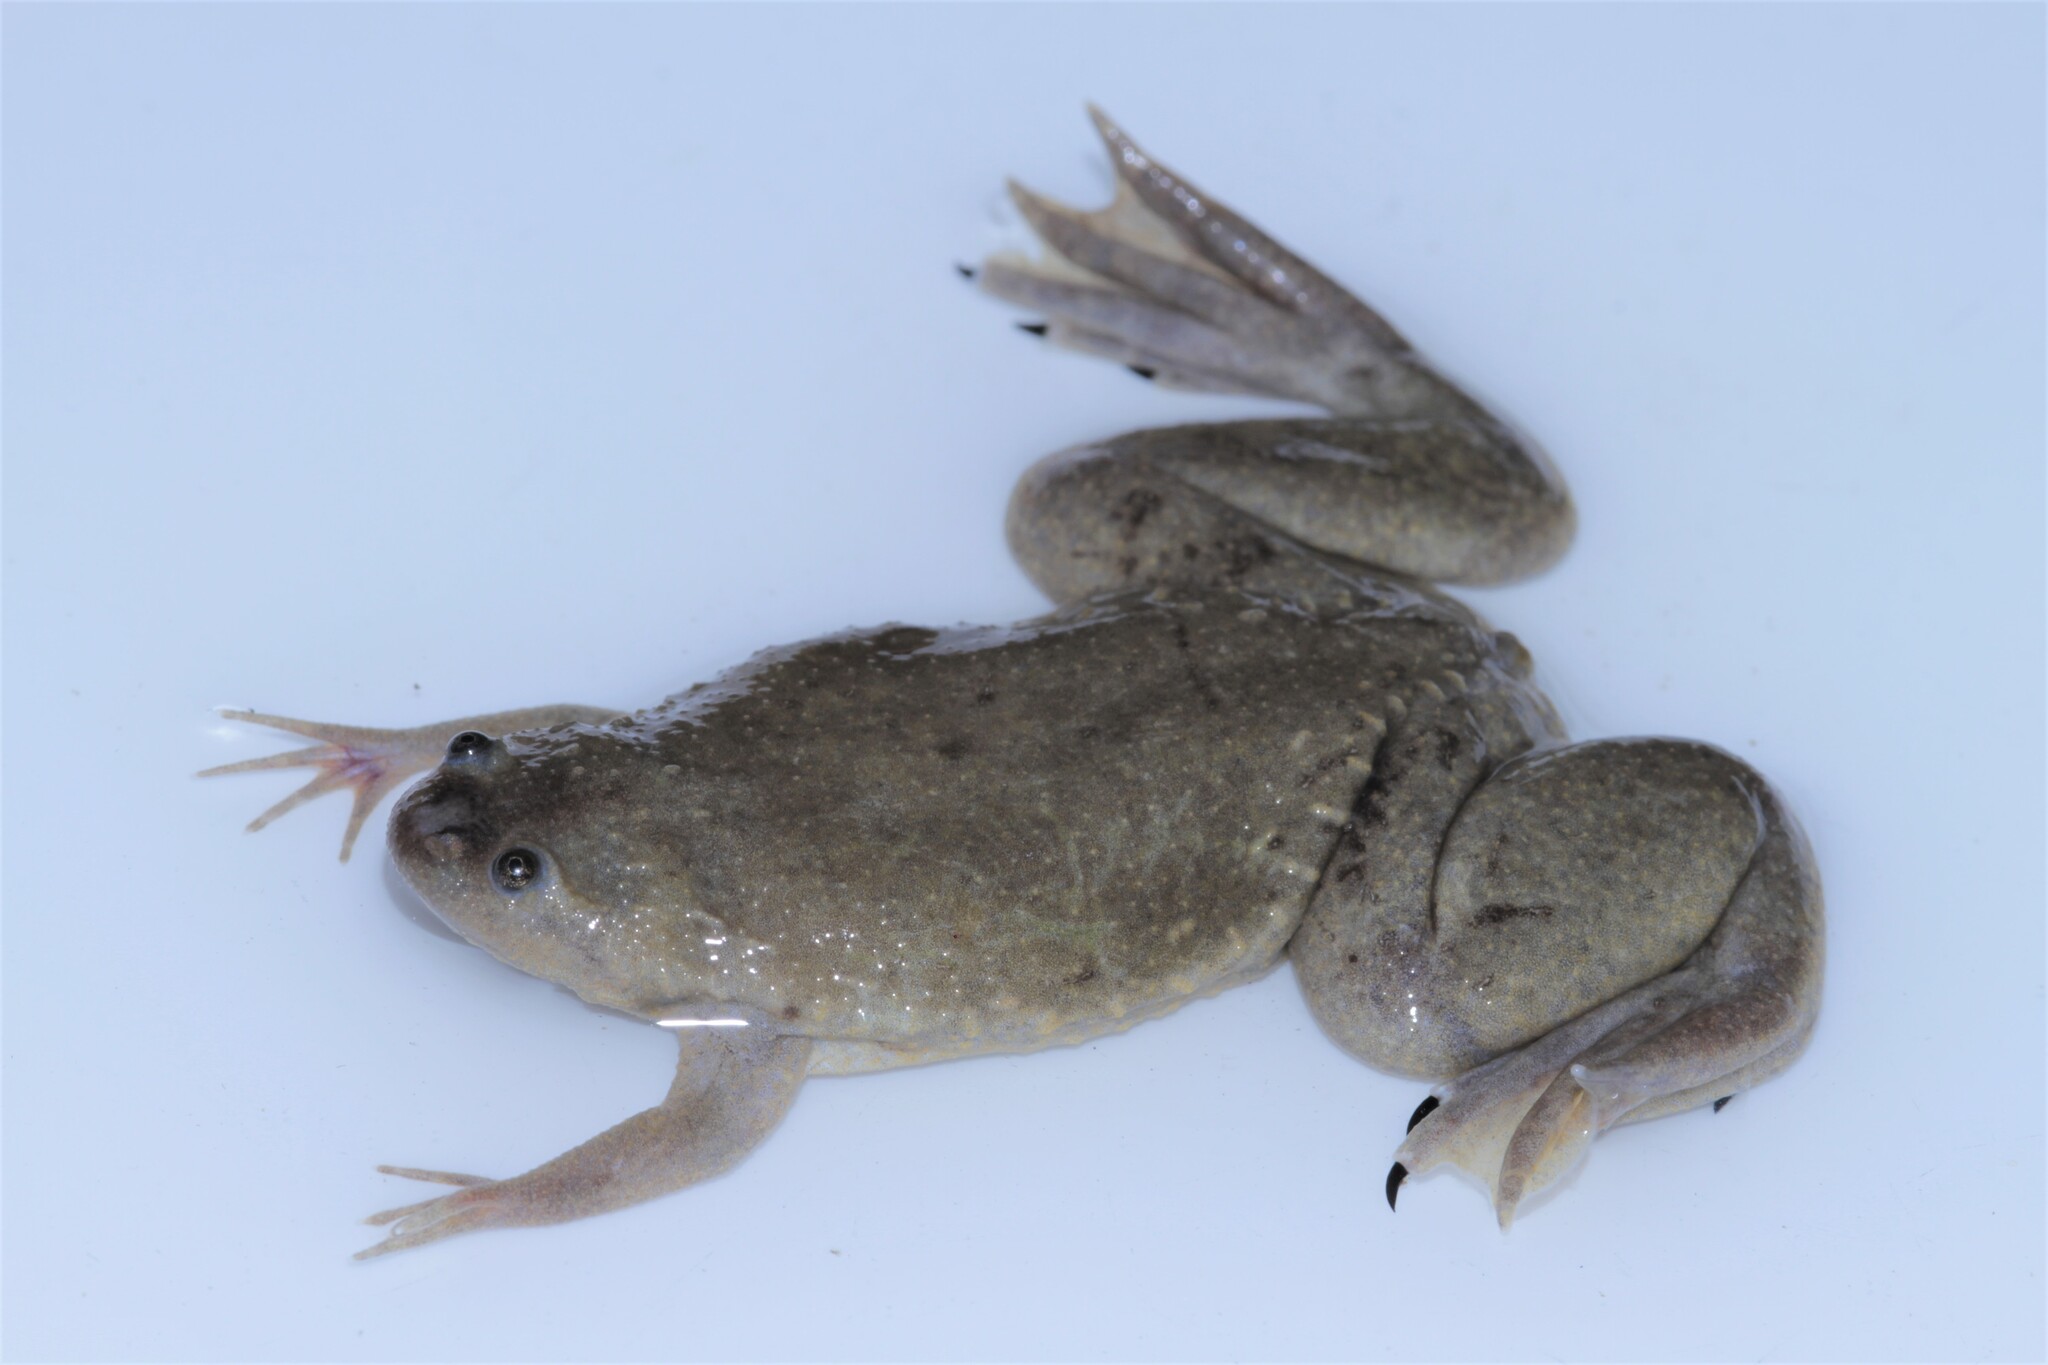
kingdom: Animalia
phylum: Chordata
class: Amphibia
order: Anura
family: Pipidae
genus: Xenopus
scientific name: Xenopus mellotropicalis
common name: Cameroon clawed frog
